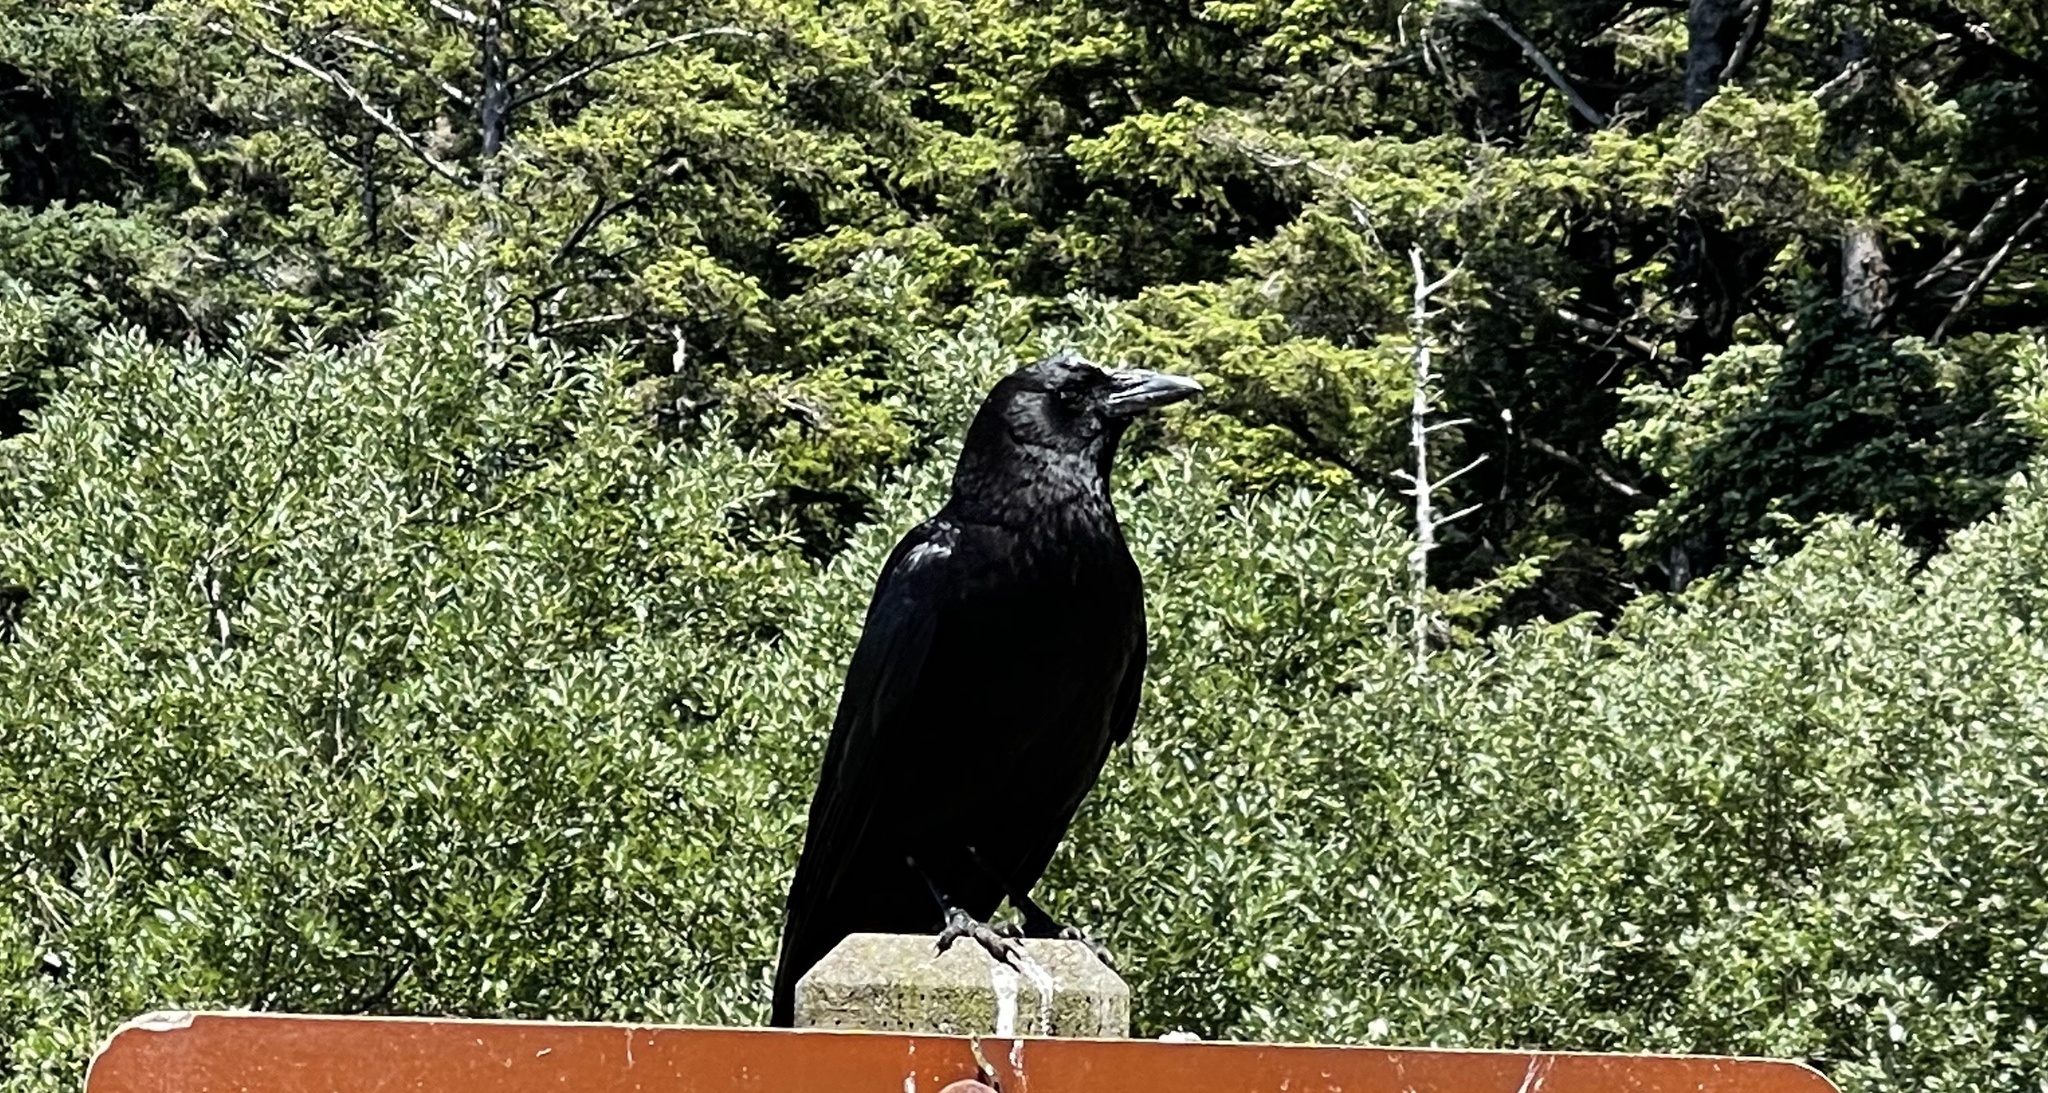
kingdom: Animalia
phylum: Chordata
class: Aves
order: Passeriformes
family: Corvidae
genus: Corvus
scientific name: Corvus corax
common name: Common raven
